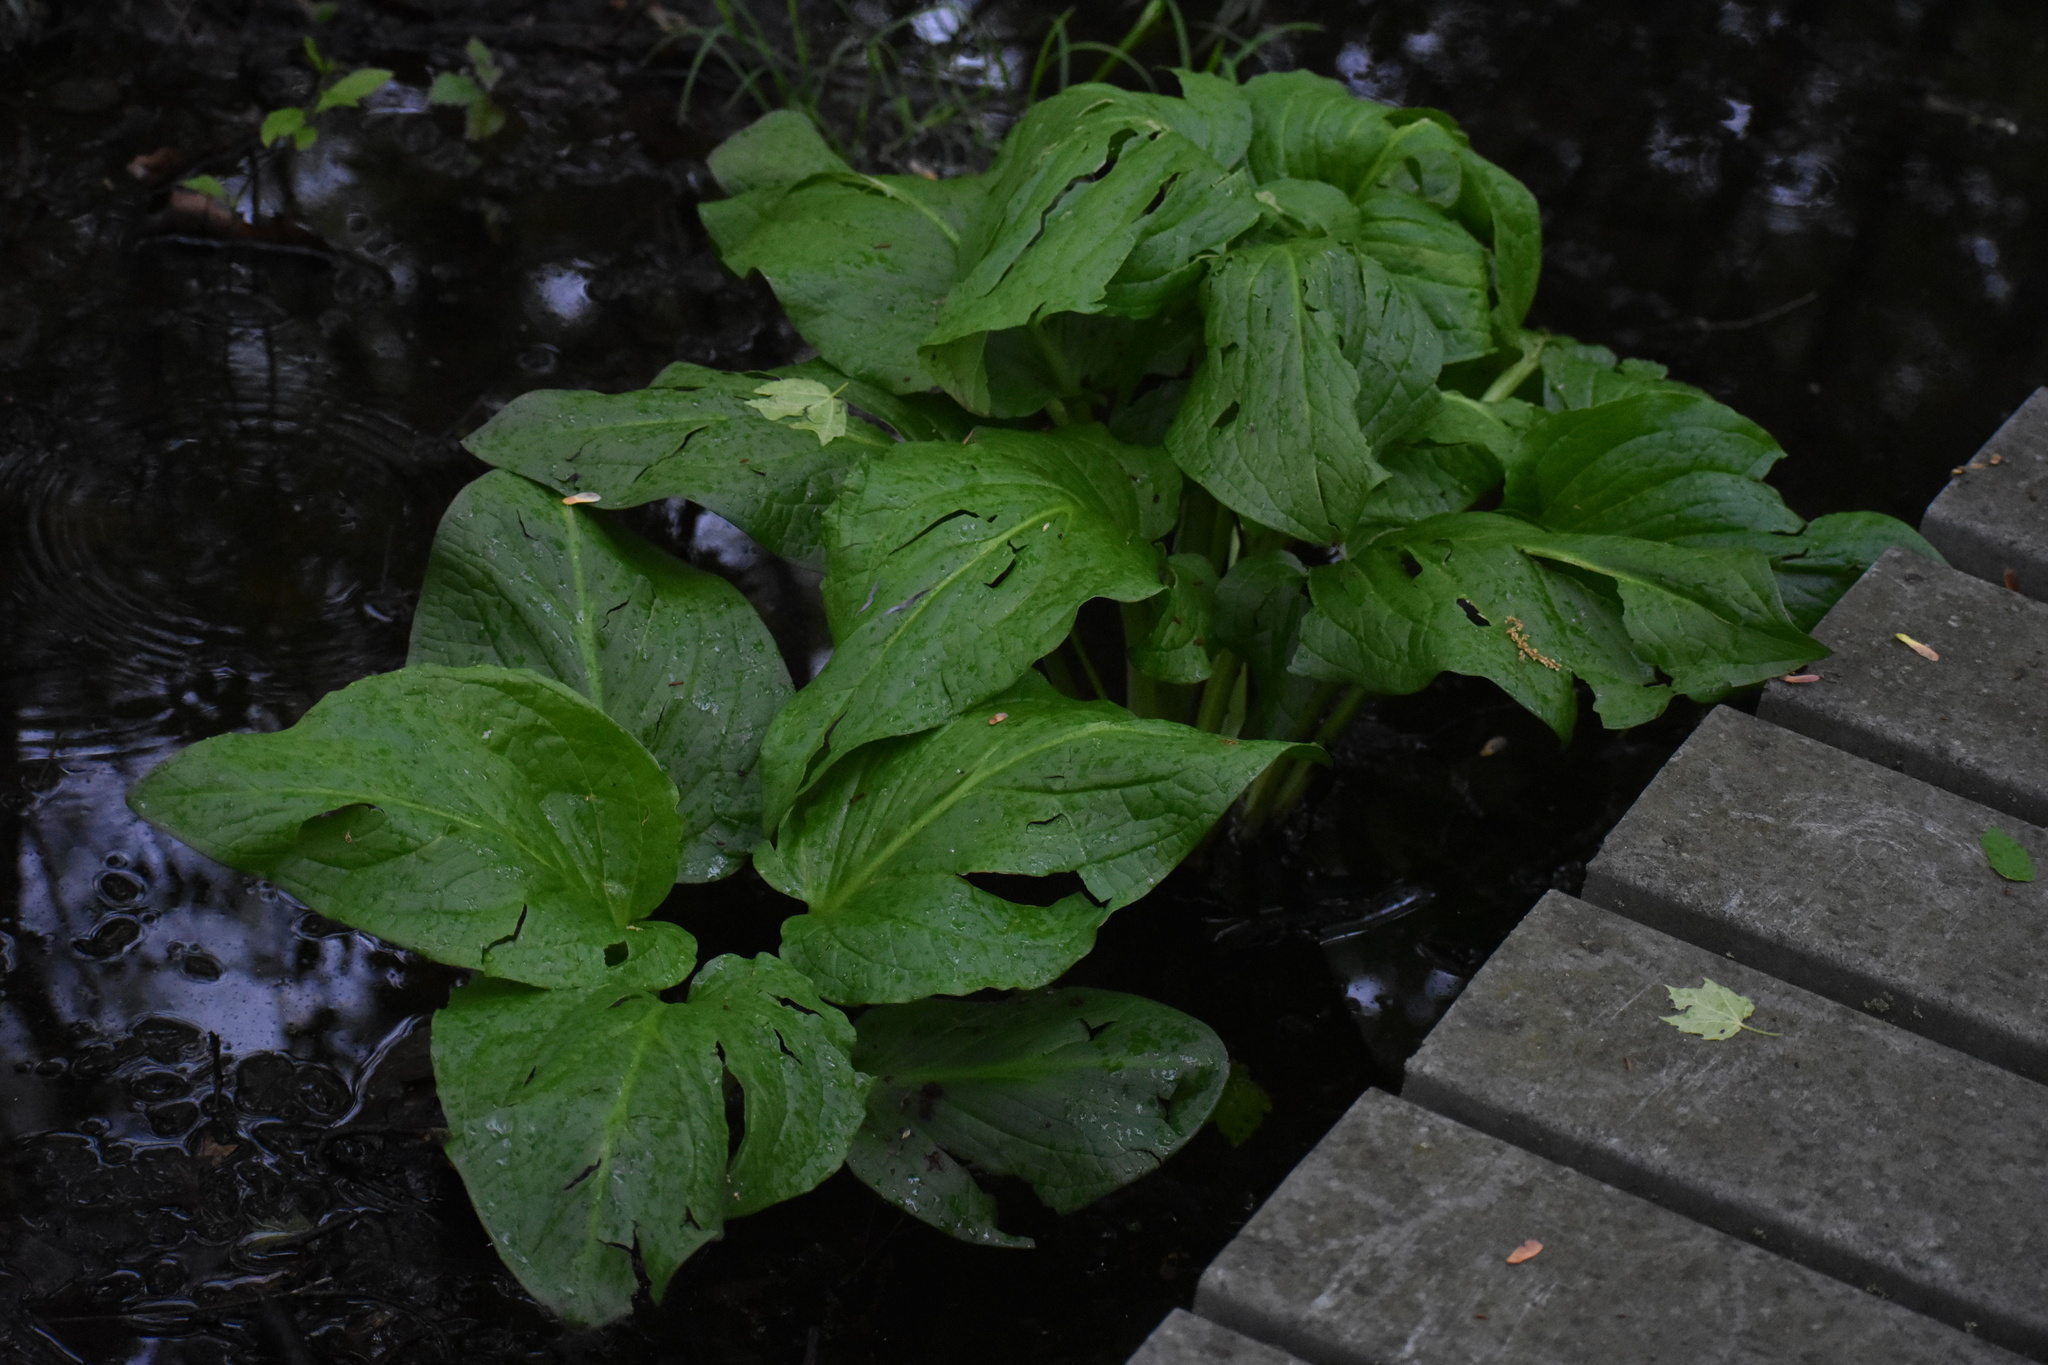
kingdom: Plantae
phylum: Tracheophyta
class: Liliopsida
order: Alismatales
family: Araceae
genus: Symplocarpus
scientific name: Symplocarpus foetidus
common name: Eastern skunk cabbage
